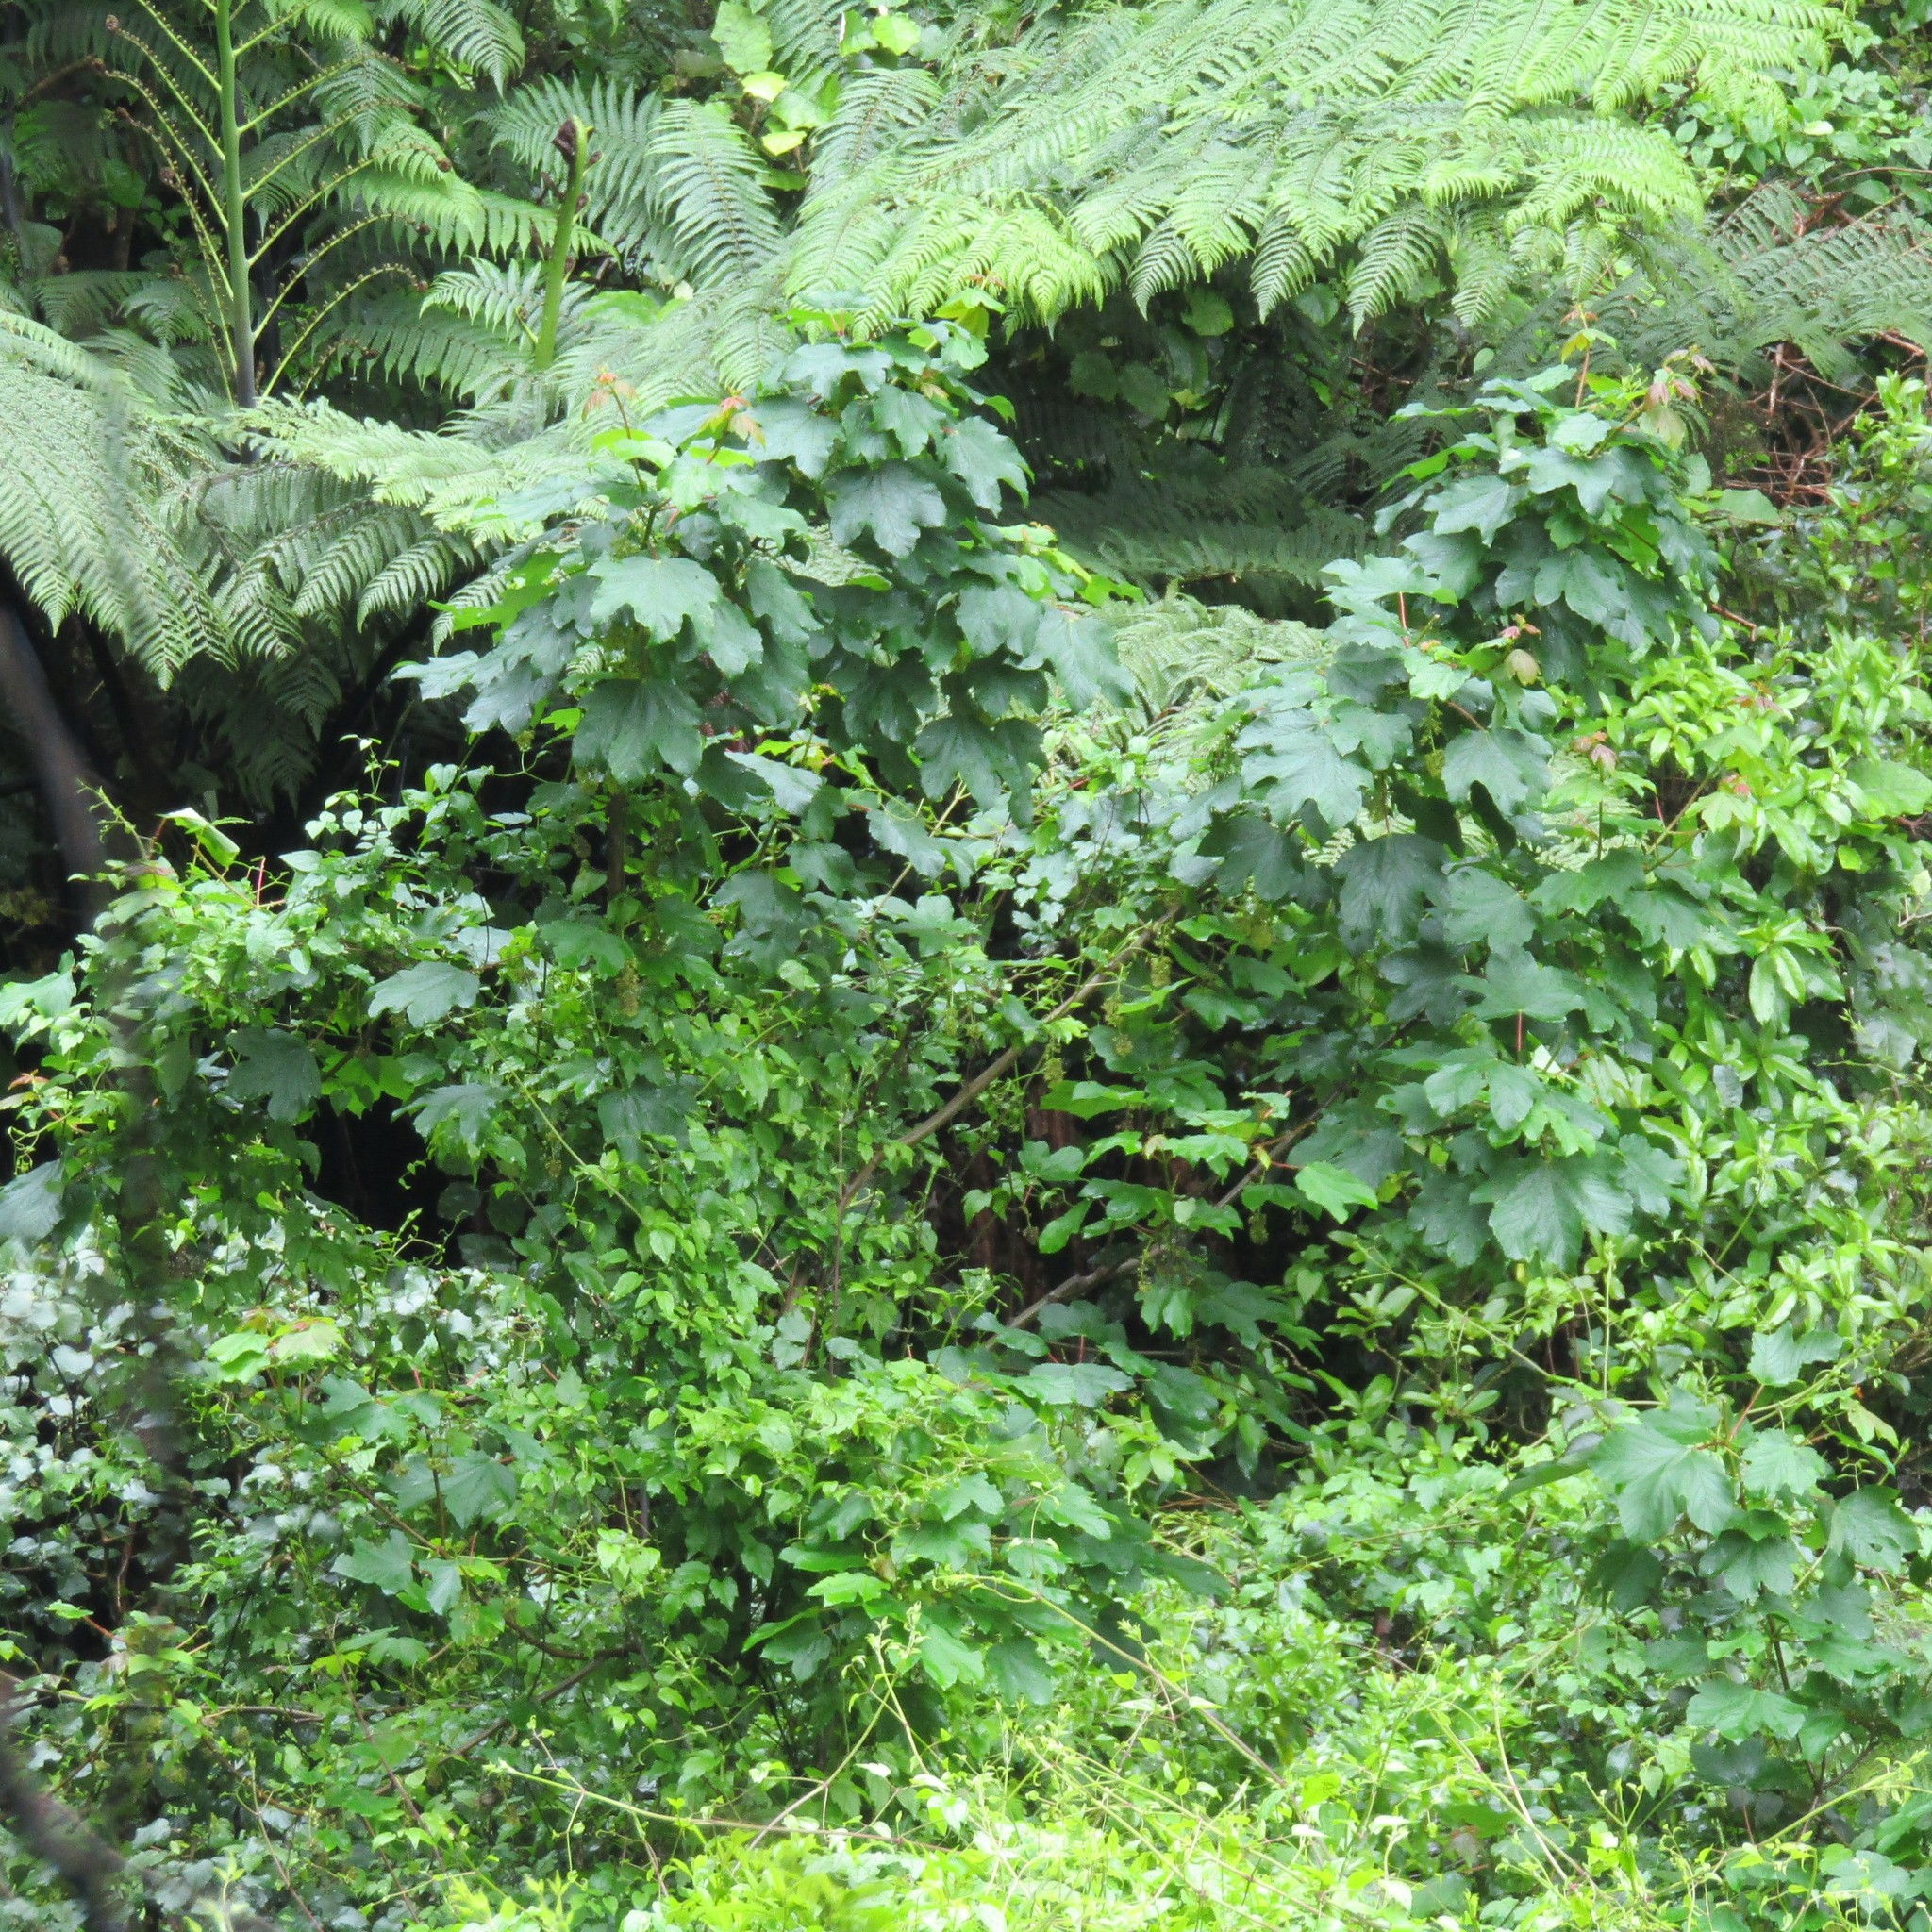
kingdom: Plantae
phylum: Tracheophyta
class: Magnoliopsida
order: Ranunculales
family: Ranunculaceae
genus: Clematis
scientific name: Clematis vitalba
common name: Evergreen clematis
